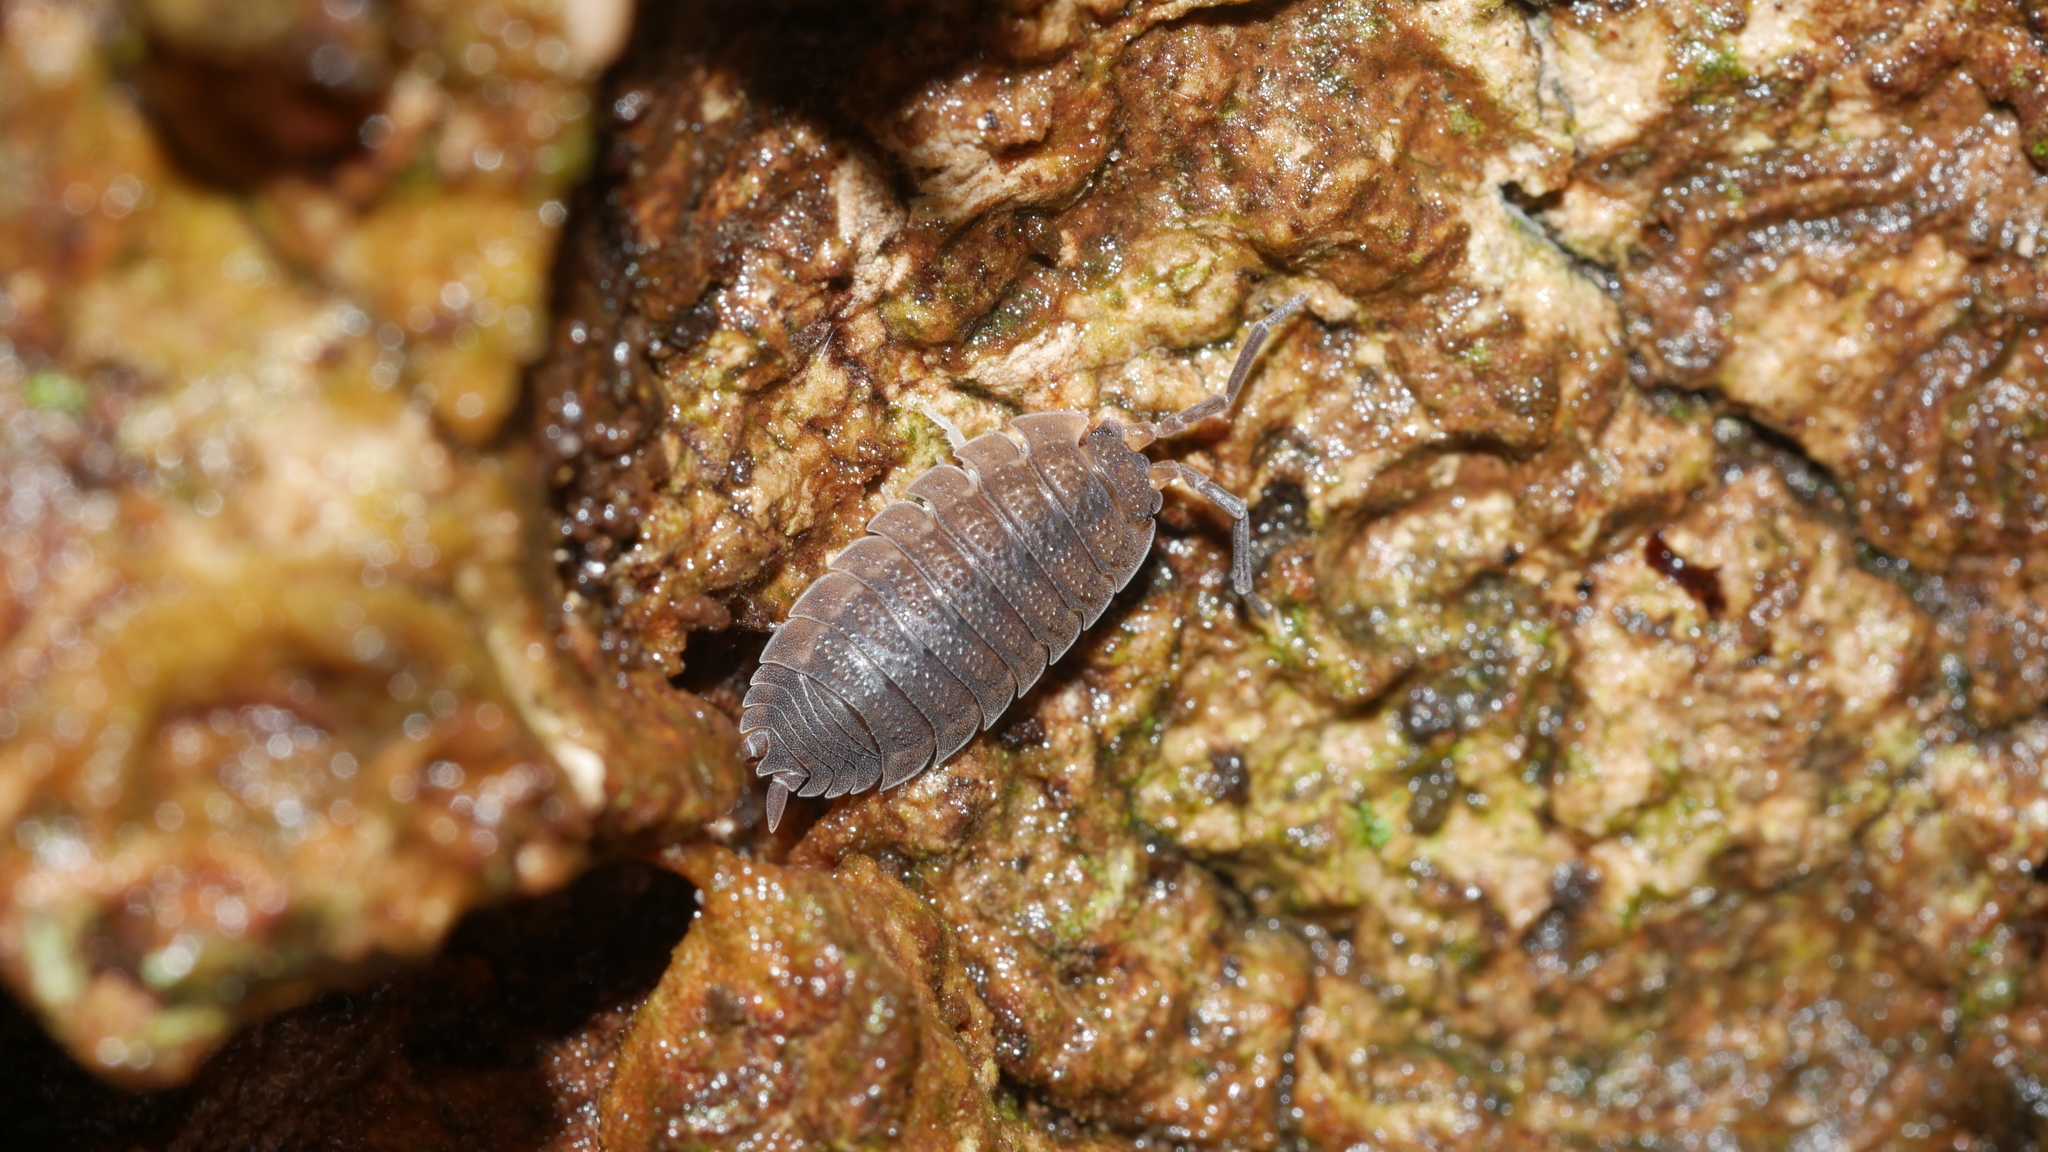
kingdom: Animalia
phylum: Arthropoda
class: Malacostraca
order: Isopoda
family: Porcellionidae
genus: Porcellio
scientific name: Porcellio scaber
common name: Common rough woodlouse
